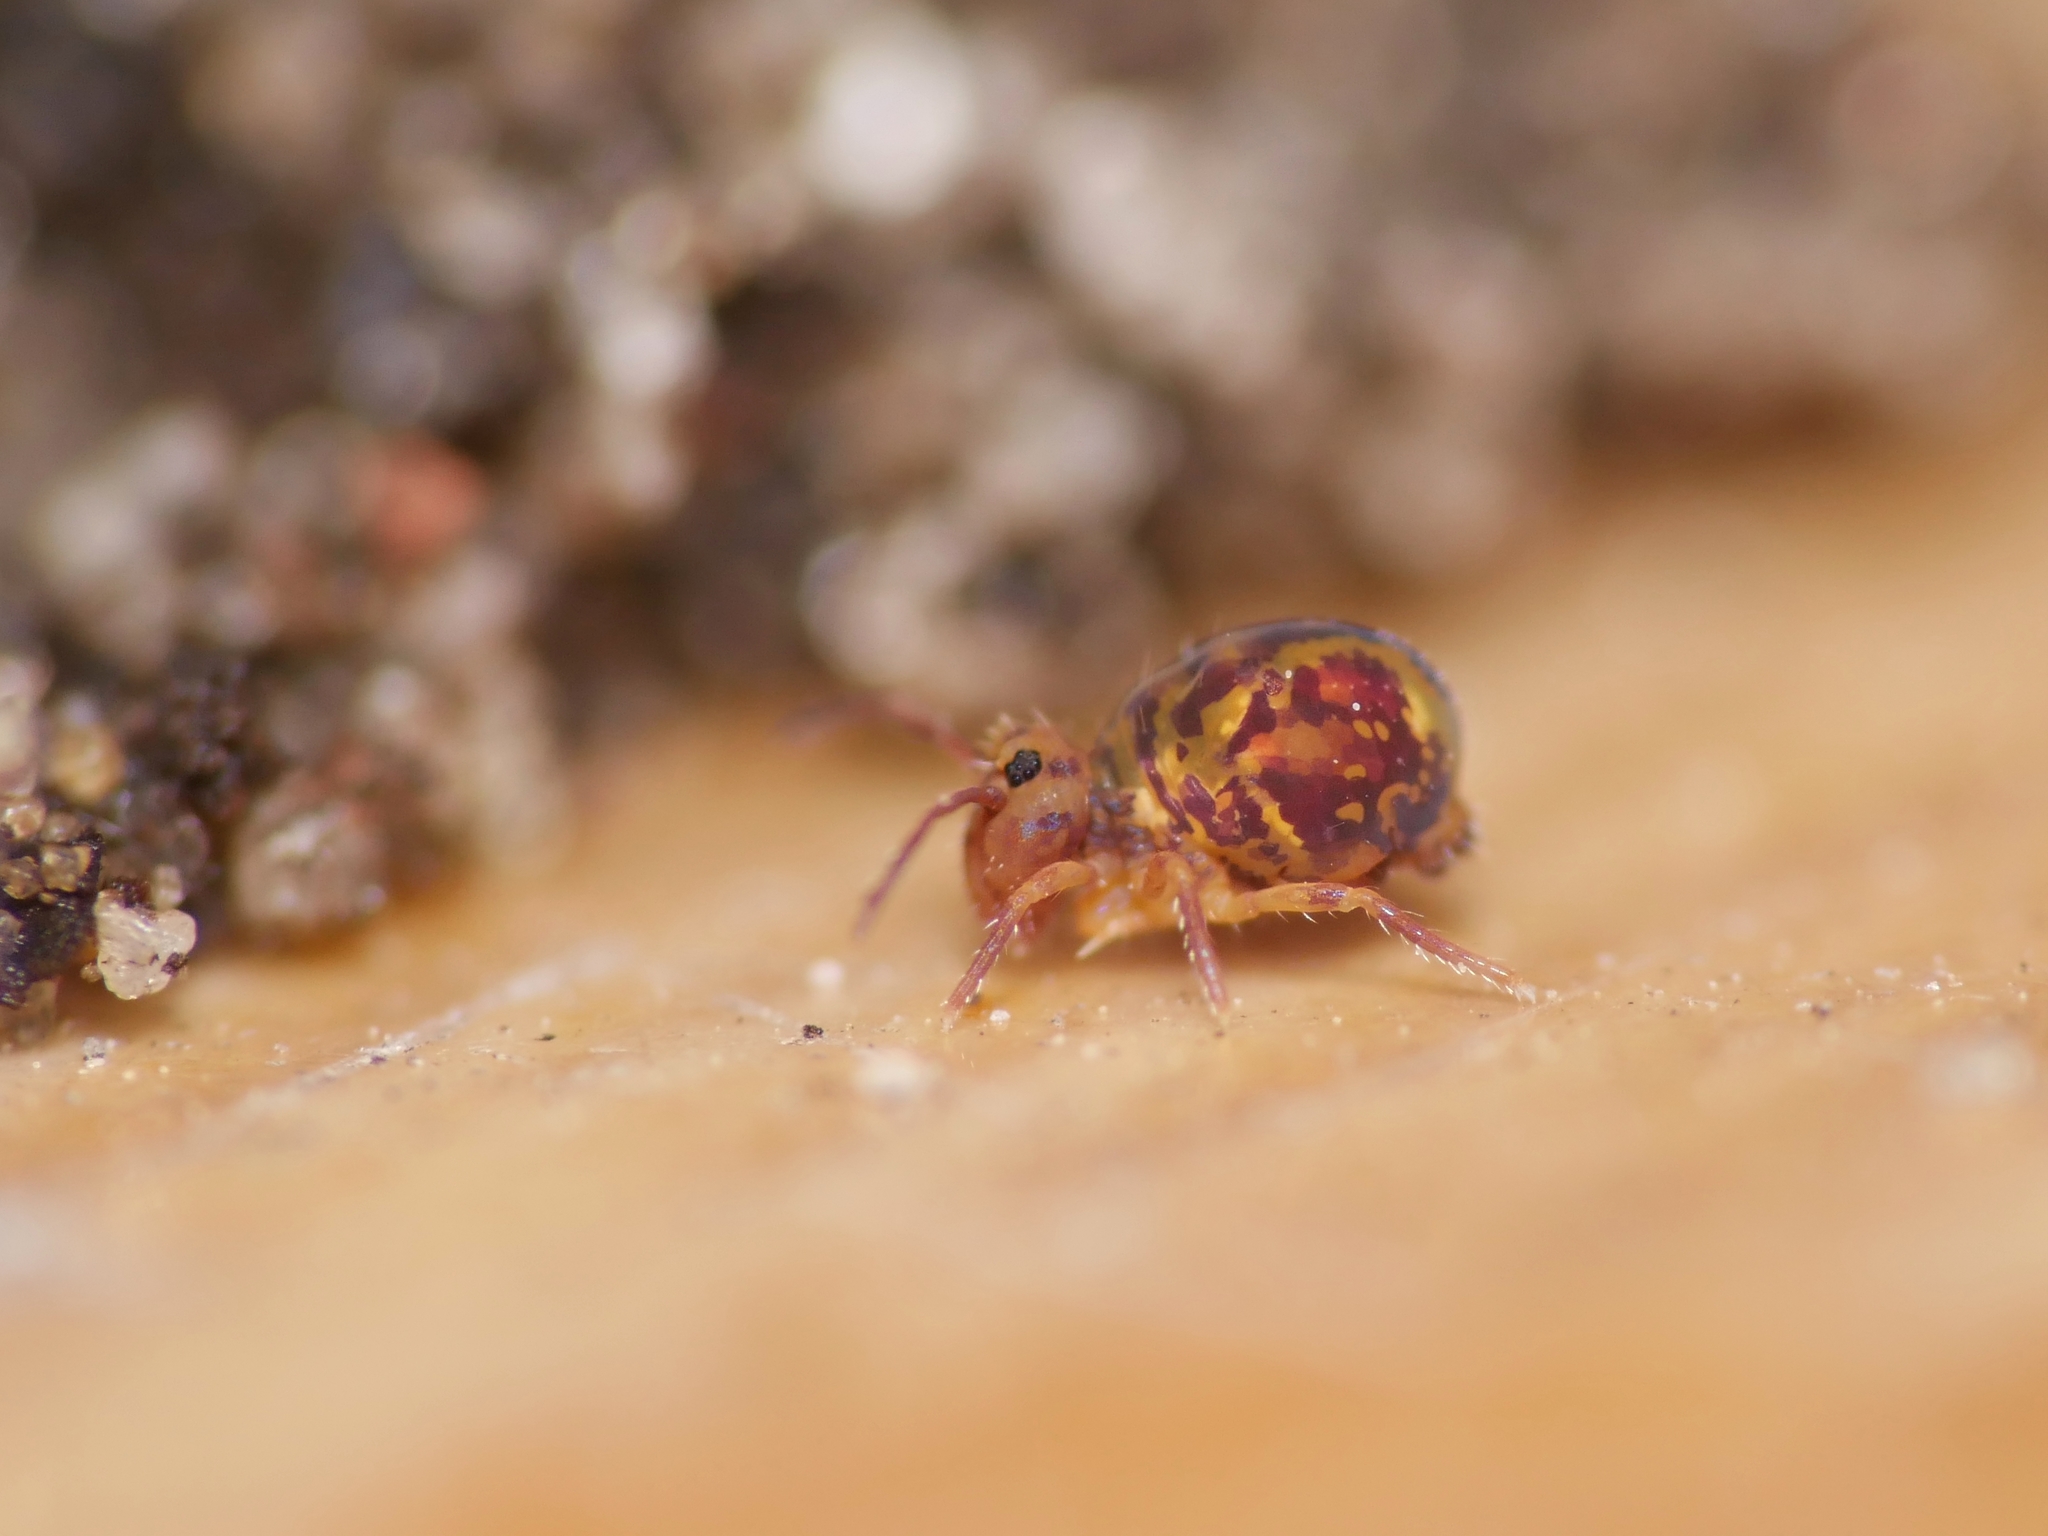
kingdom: Animalia
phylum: Arthropoda
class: Collembola
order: Symphypleona
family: Dicyrtomidae
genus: Dicyrtomina
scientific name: Dicyrtomina ornata
